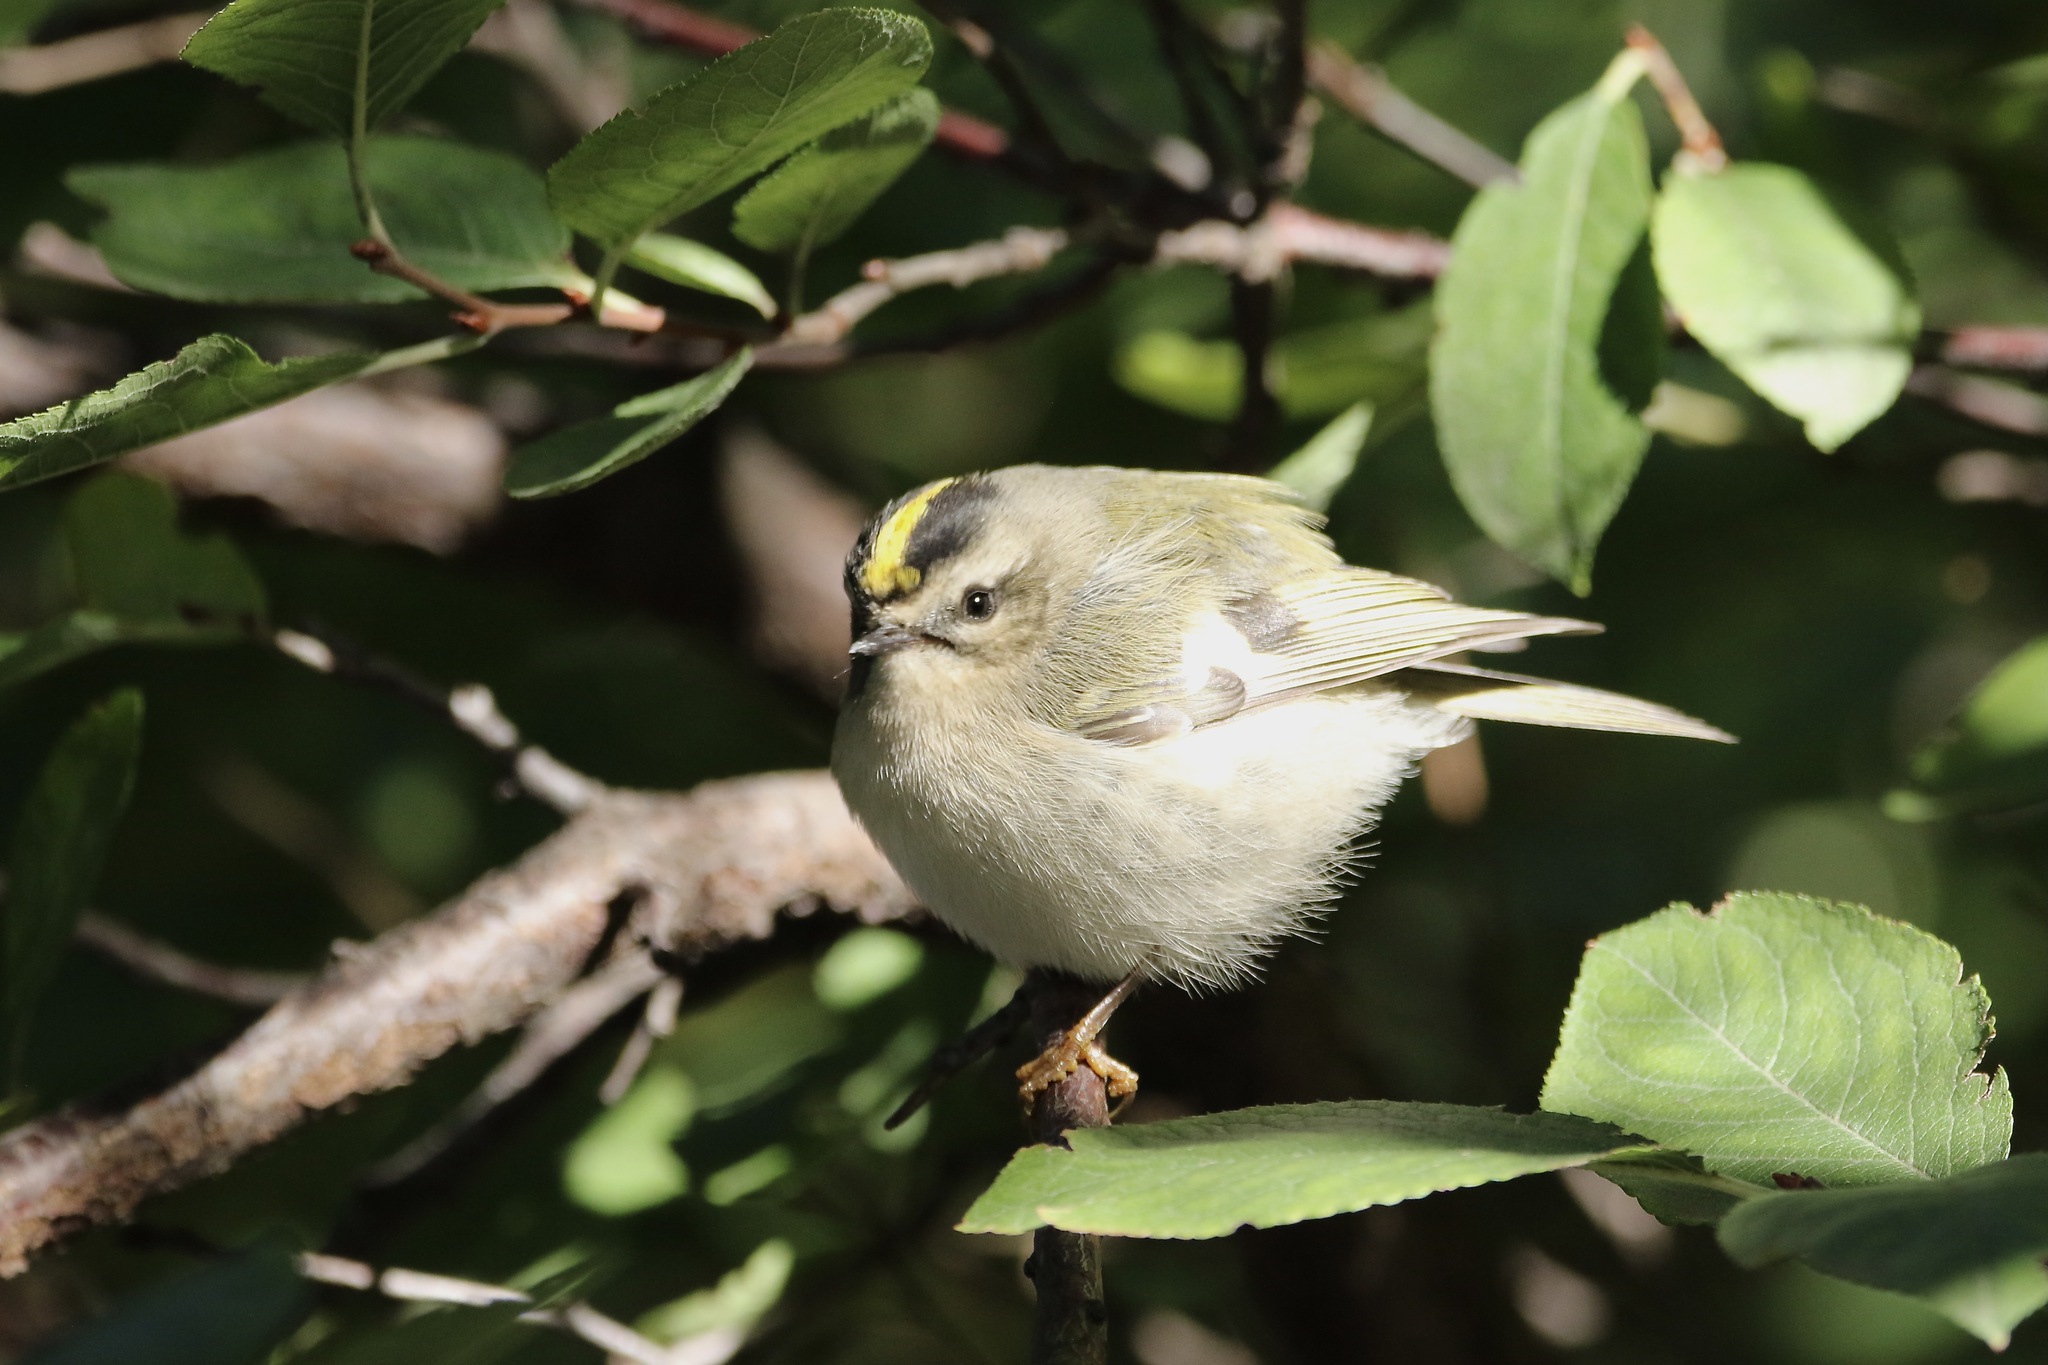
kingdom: Animalia
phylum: Chordata
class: Aves
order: Passeriformes
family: Regulidae
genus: Regulus
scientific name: Regulus satrapa
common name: Golden-crowned kinglet
